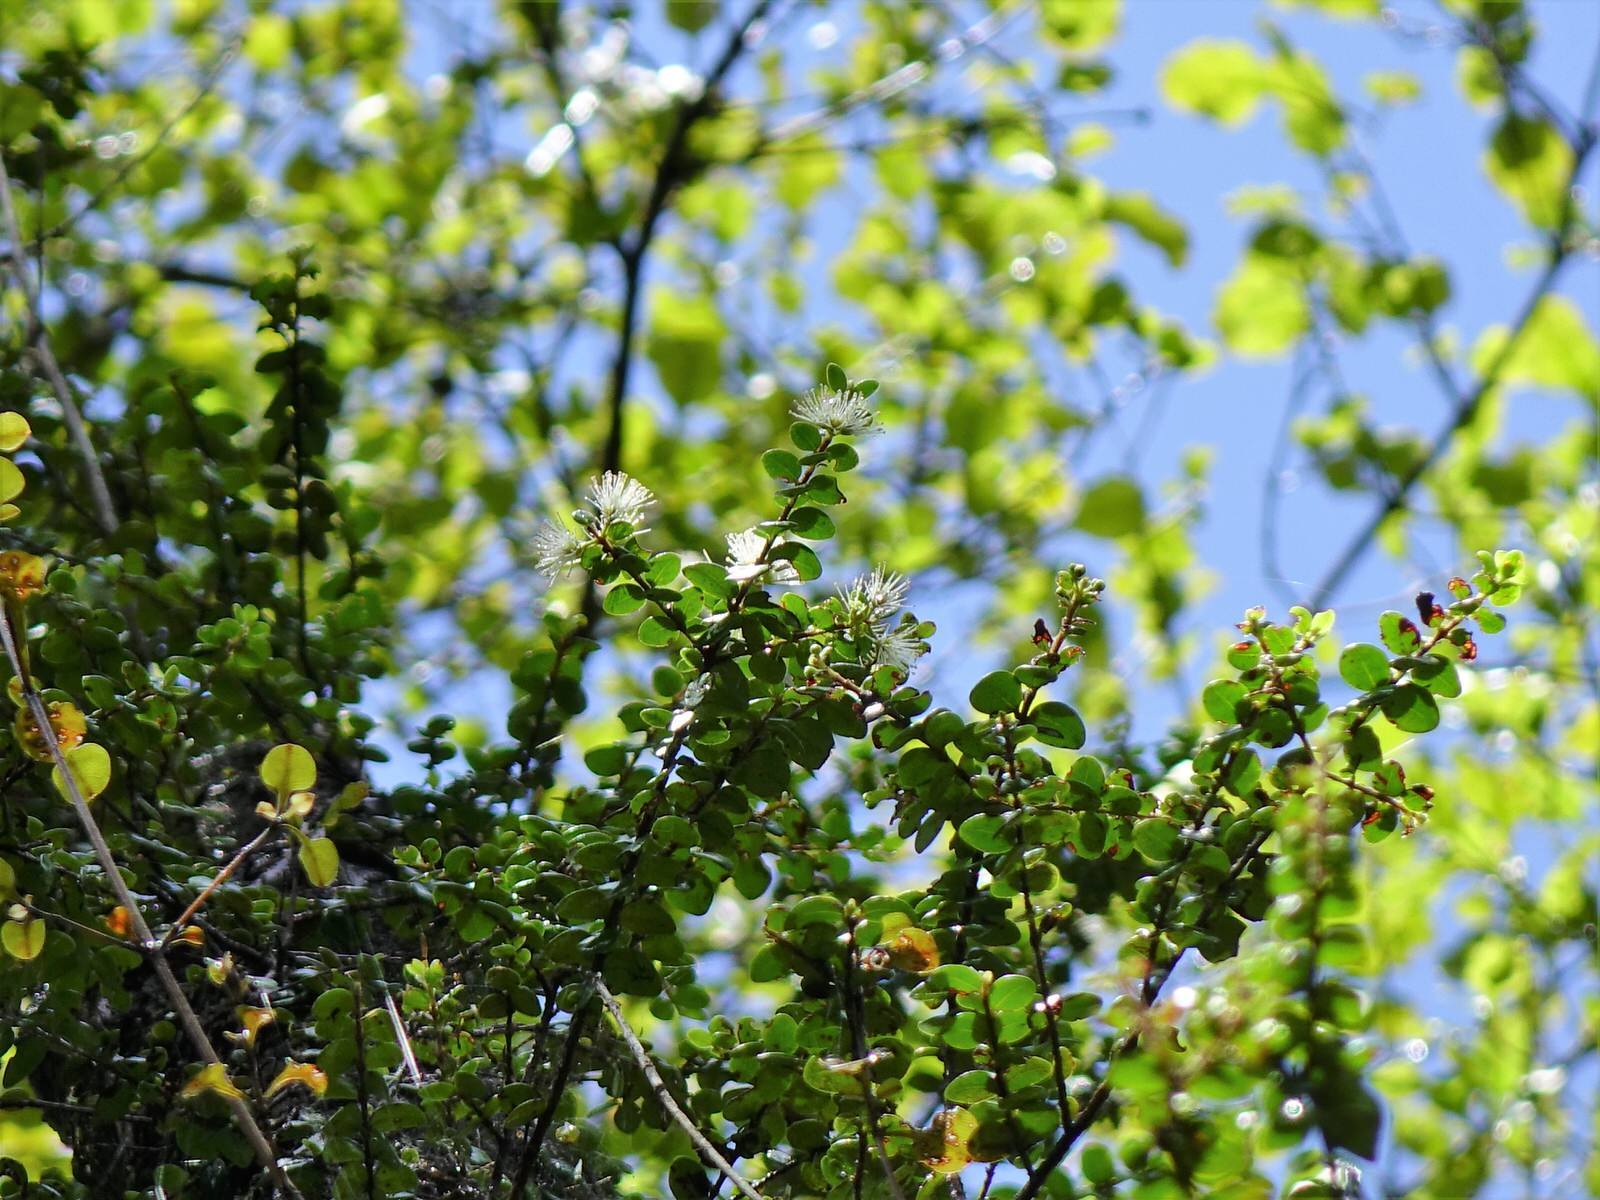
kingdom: Plantae
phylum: Tracheophyta
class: Magnoliopsida
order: Myrtales
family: Myrtaceae
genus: Metrosideros
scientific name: Metrosideros perforata
